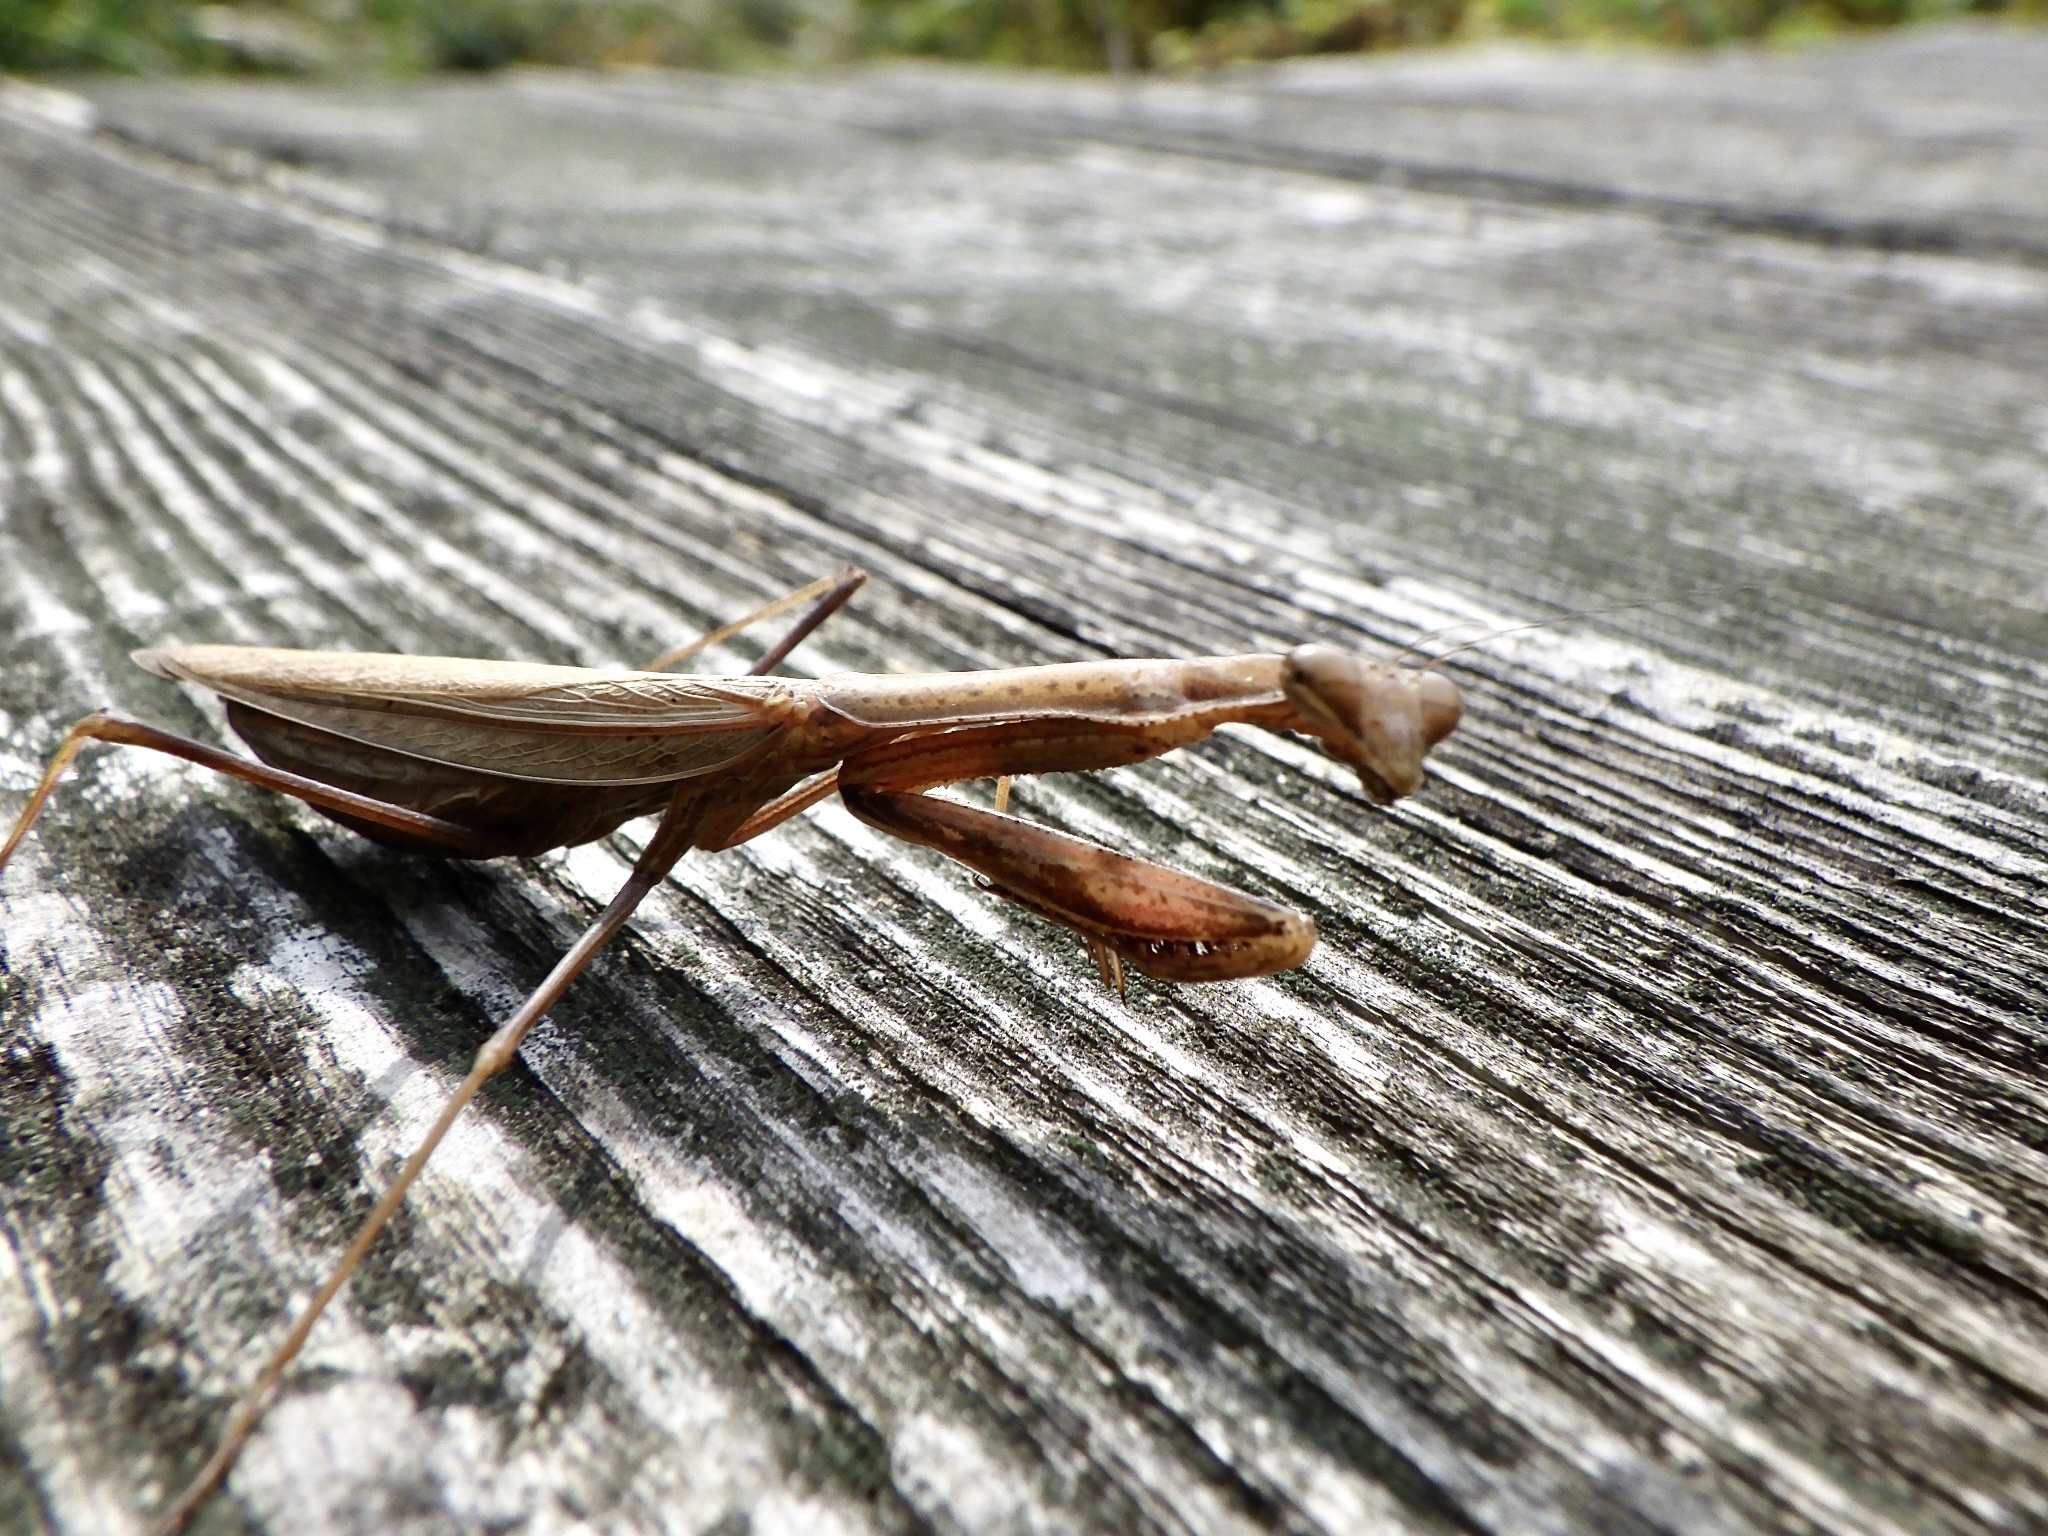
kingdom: Animalia
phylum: Arthropoda
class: Insecta
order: Mantodea
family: Mantidae
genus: Statilia
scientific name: Statilia maculata
